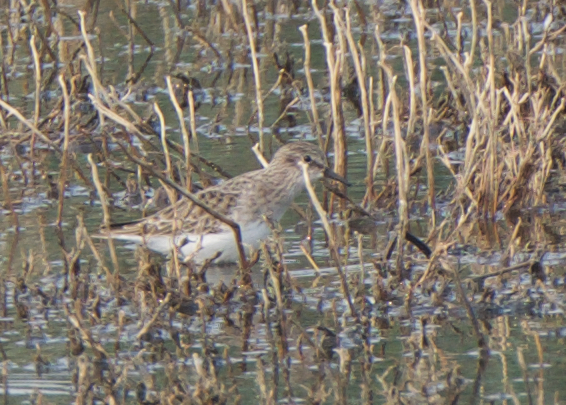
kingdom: Animalia
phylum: Chordata
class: Aves
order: Charadriiformes
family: Scolopacidae
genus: Calidris
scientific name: Calidris minutilla
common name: Least sandpiper
